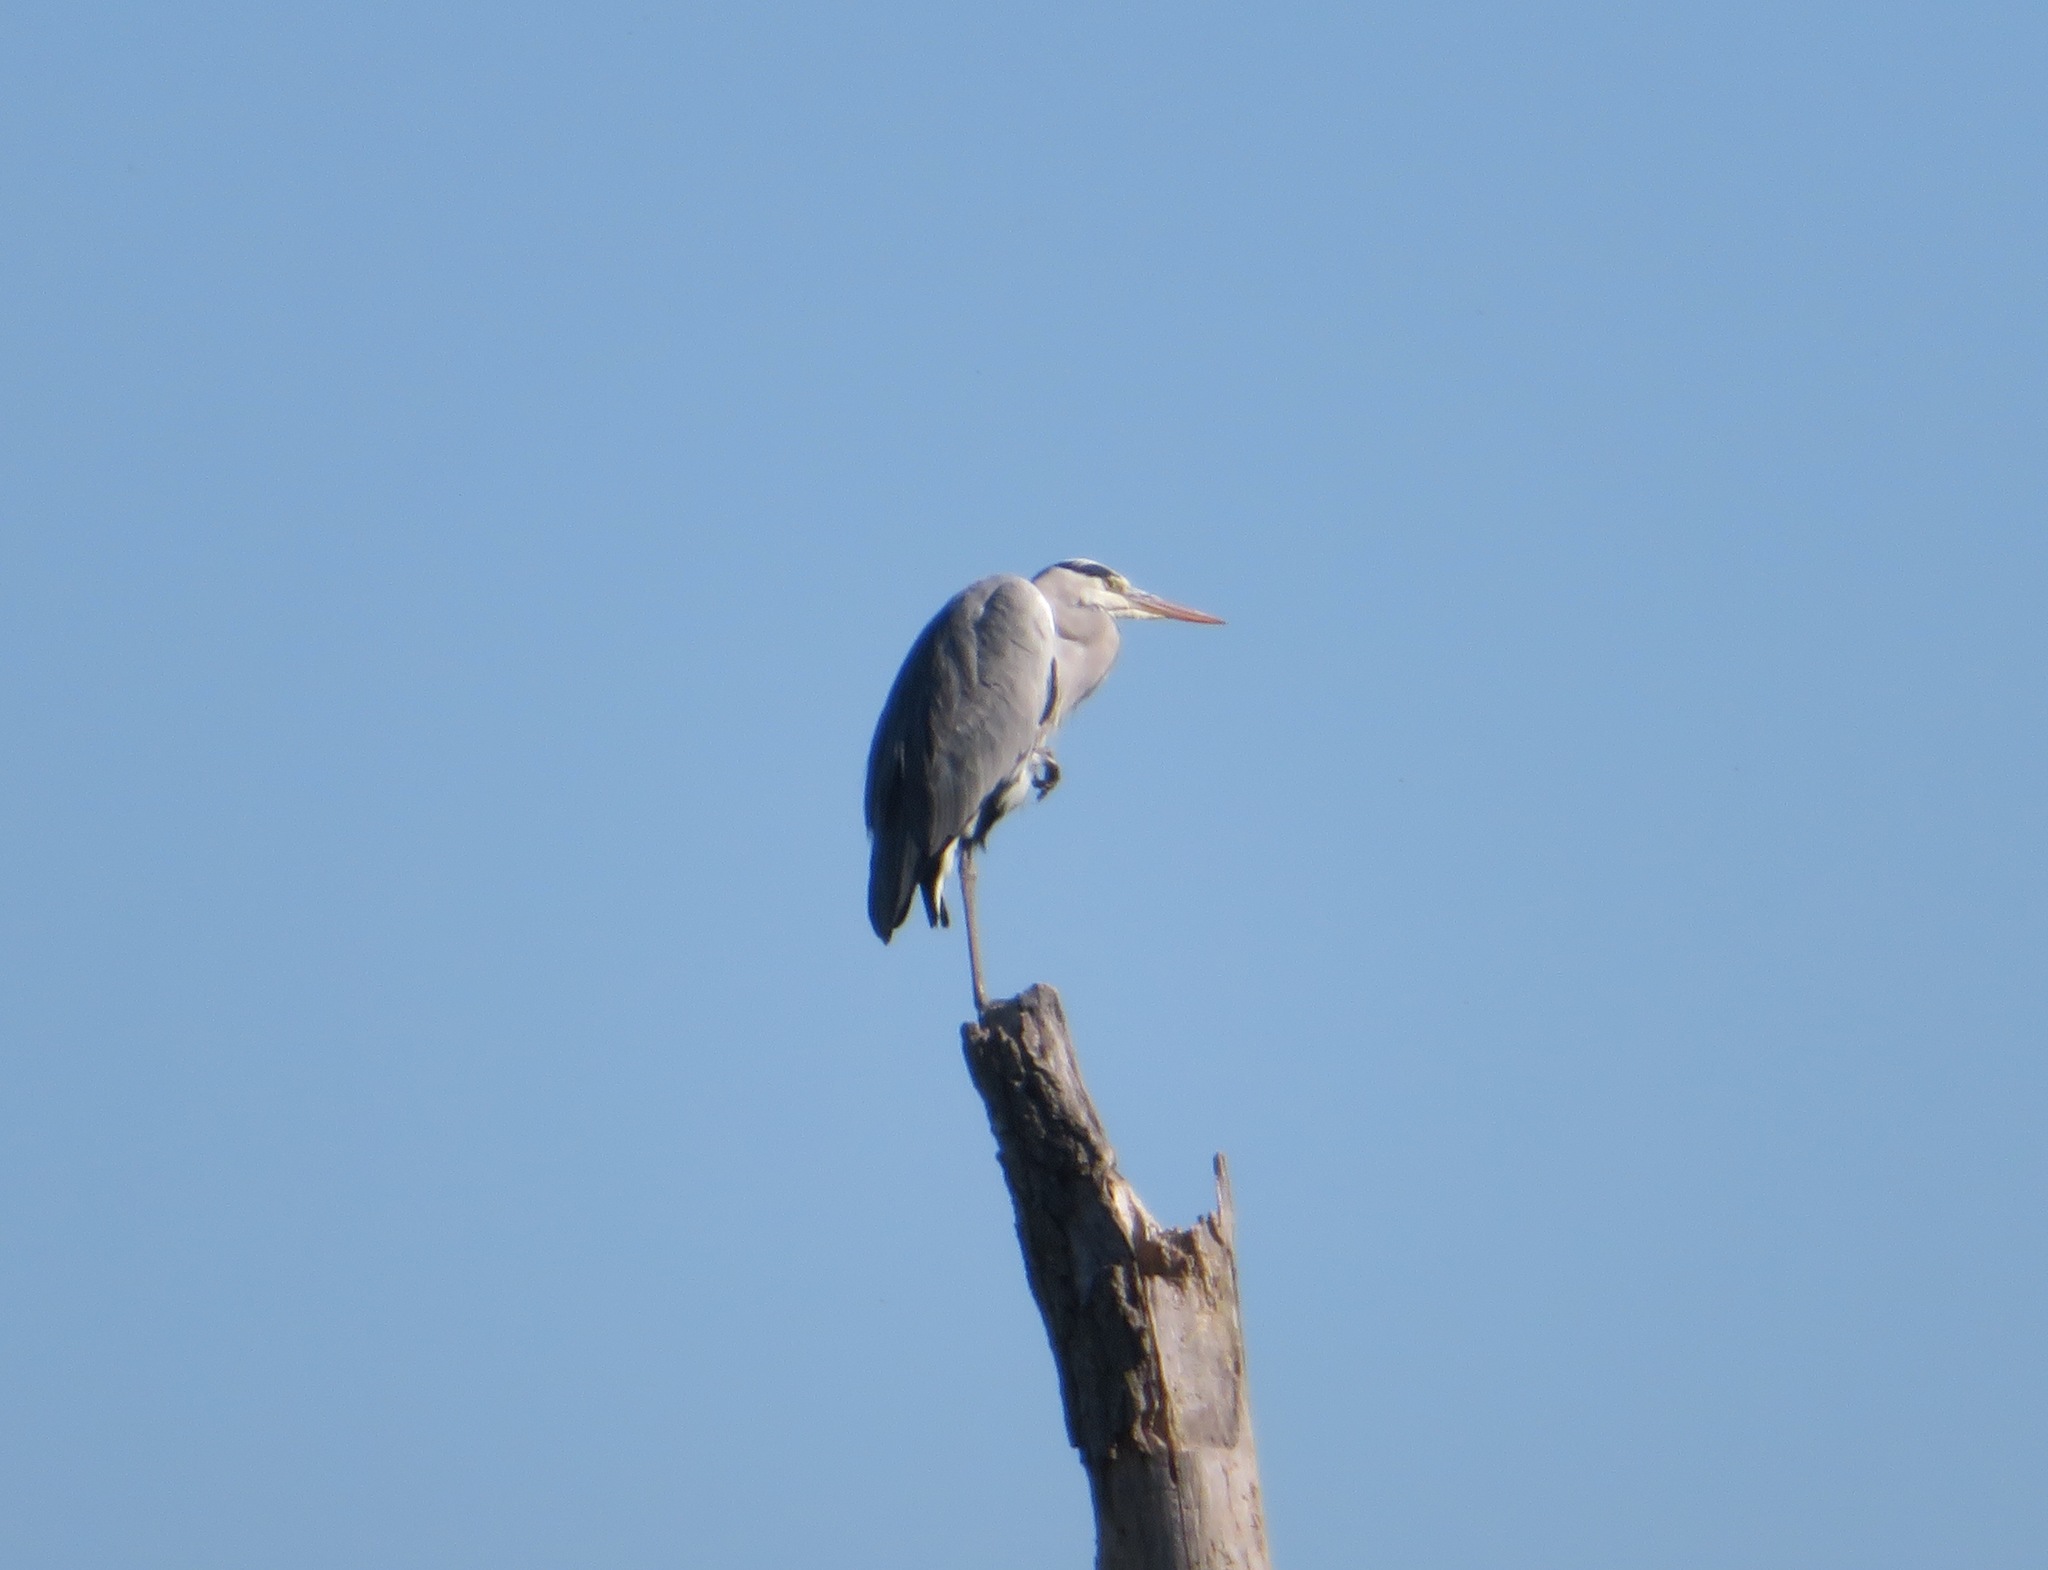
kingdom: Animalia
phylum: Chordata
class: Aves
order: Pelecaniformes
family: Ardeidae
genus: Ardea
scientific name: Ardea cinerea
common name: Grey heron
